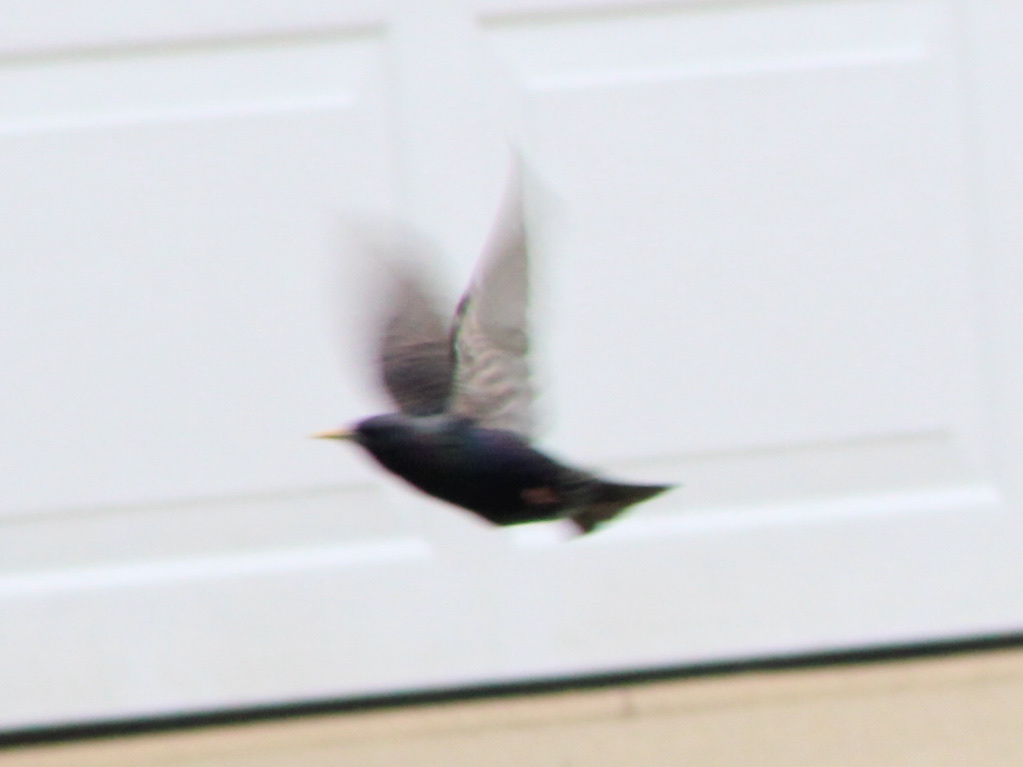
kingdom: Animalia
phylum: Chordata
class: Aves
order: Passeriformes
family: Sturnidae
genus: Sturnus
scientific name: Sturnus vulgaris
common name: Common starling
